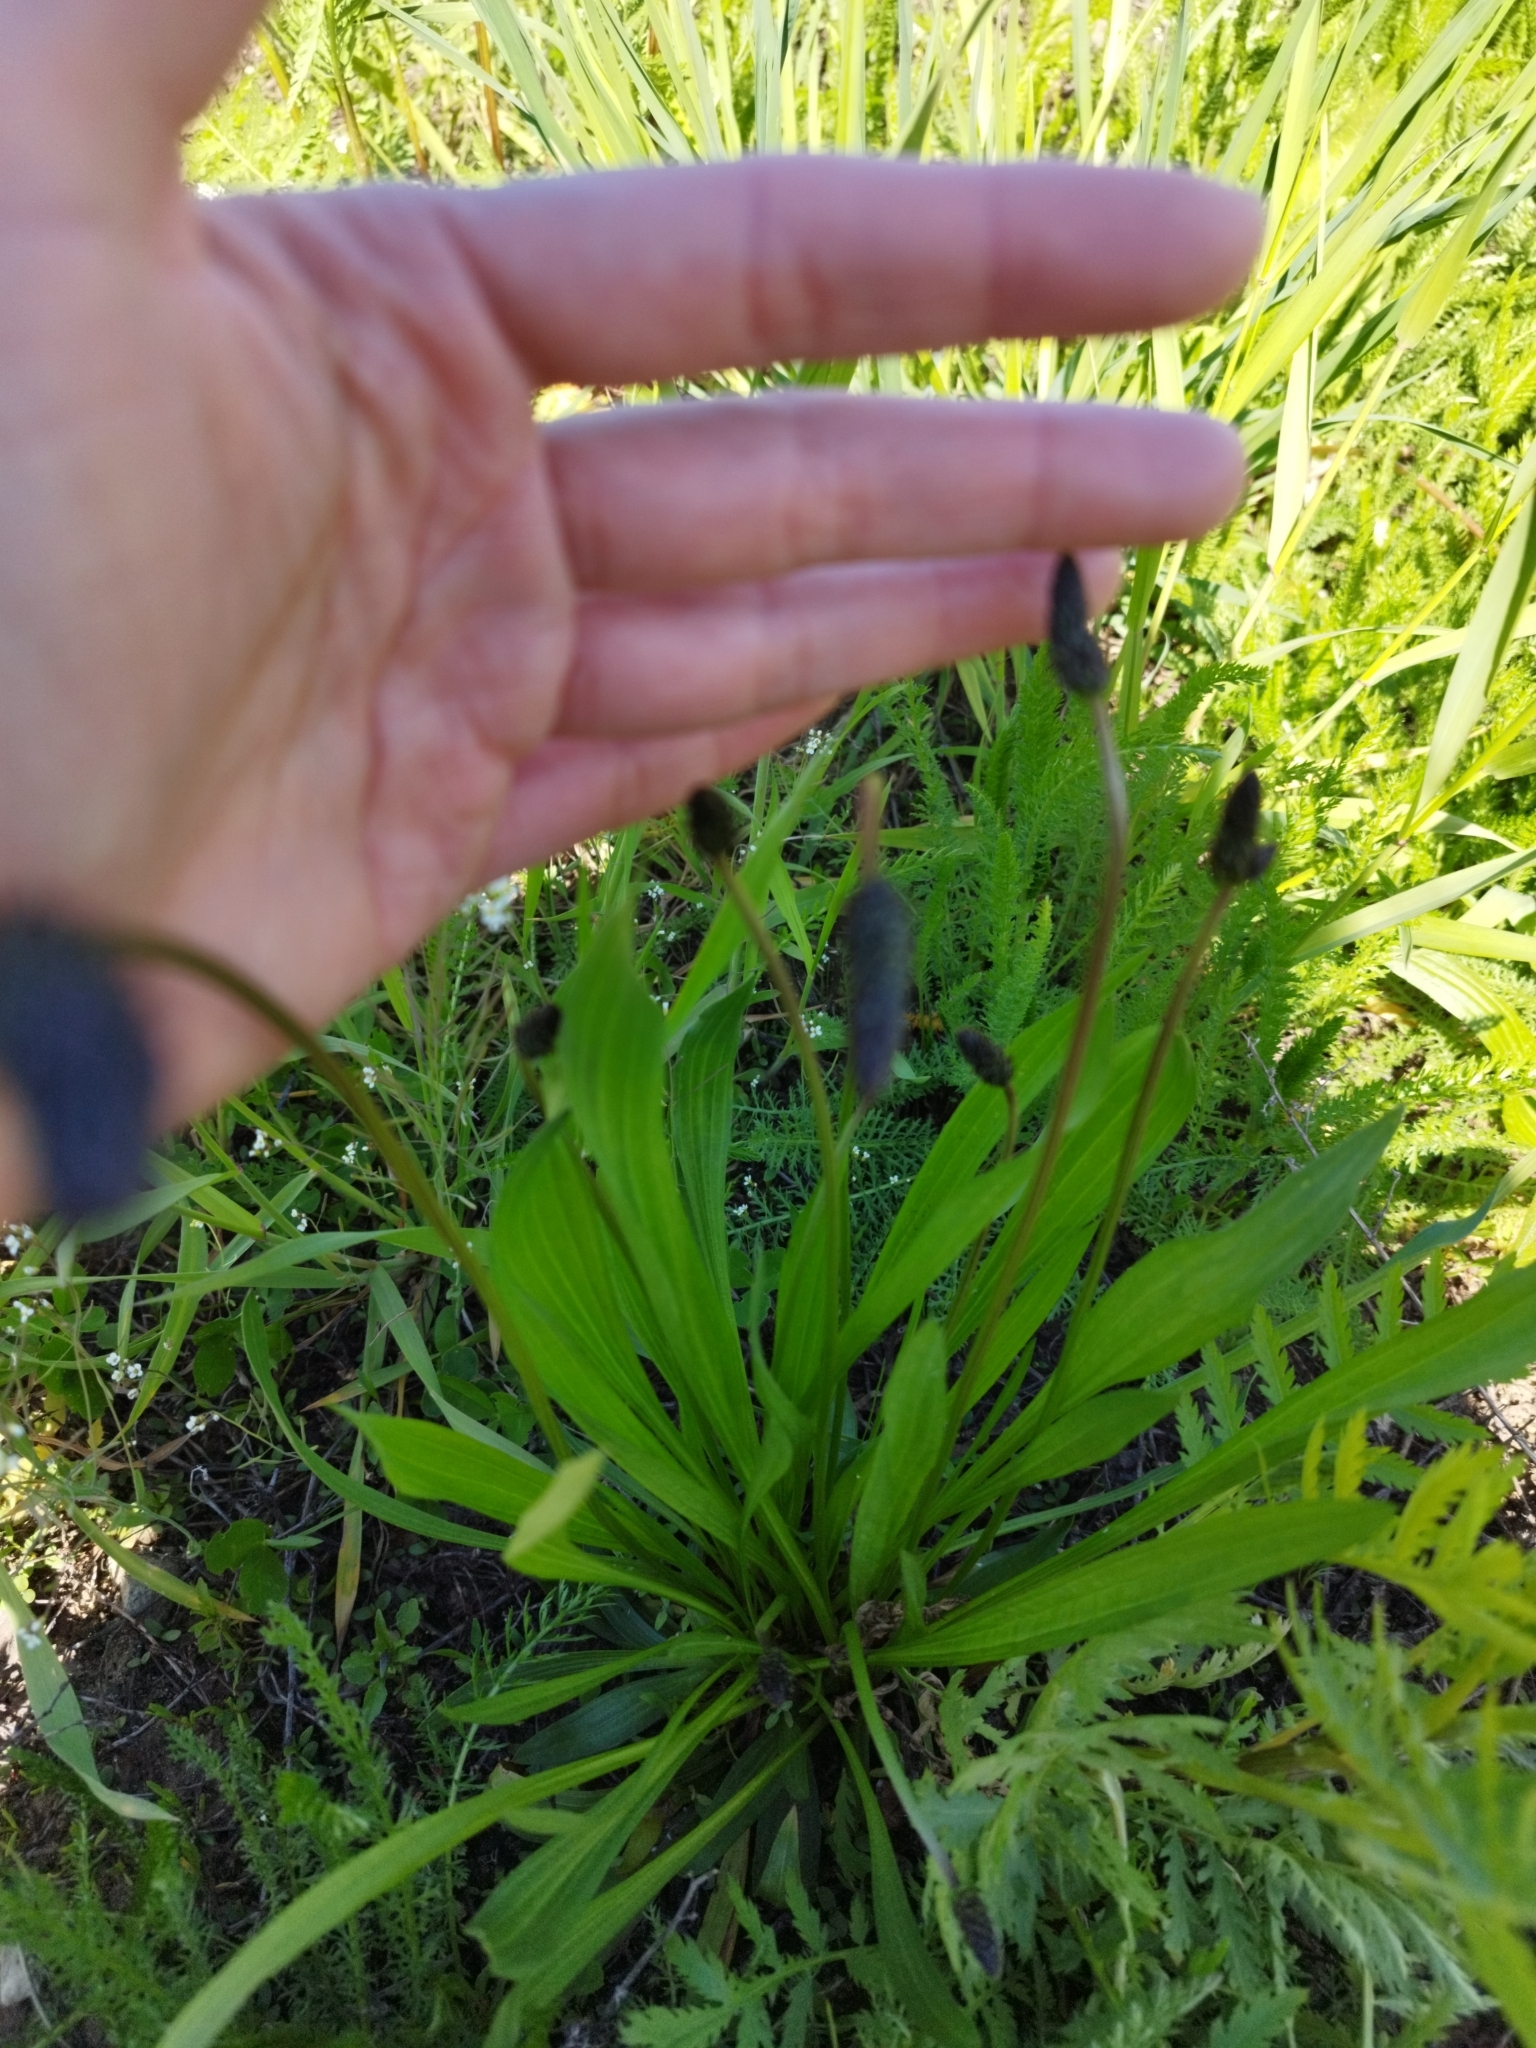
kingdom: Plantae
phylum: Tracheophyta
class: Magnoliopsida
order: Lamiales
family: Plantaginaceae
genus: Plantago
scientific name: Plantago lanceolata
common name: Ribwort plantain
